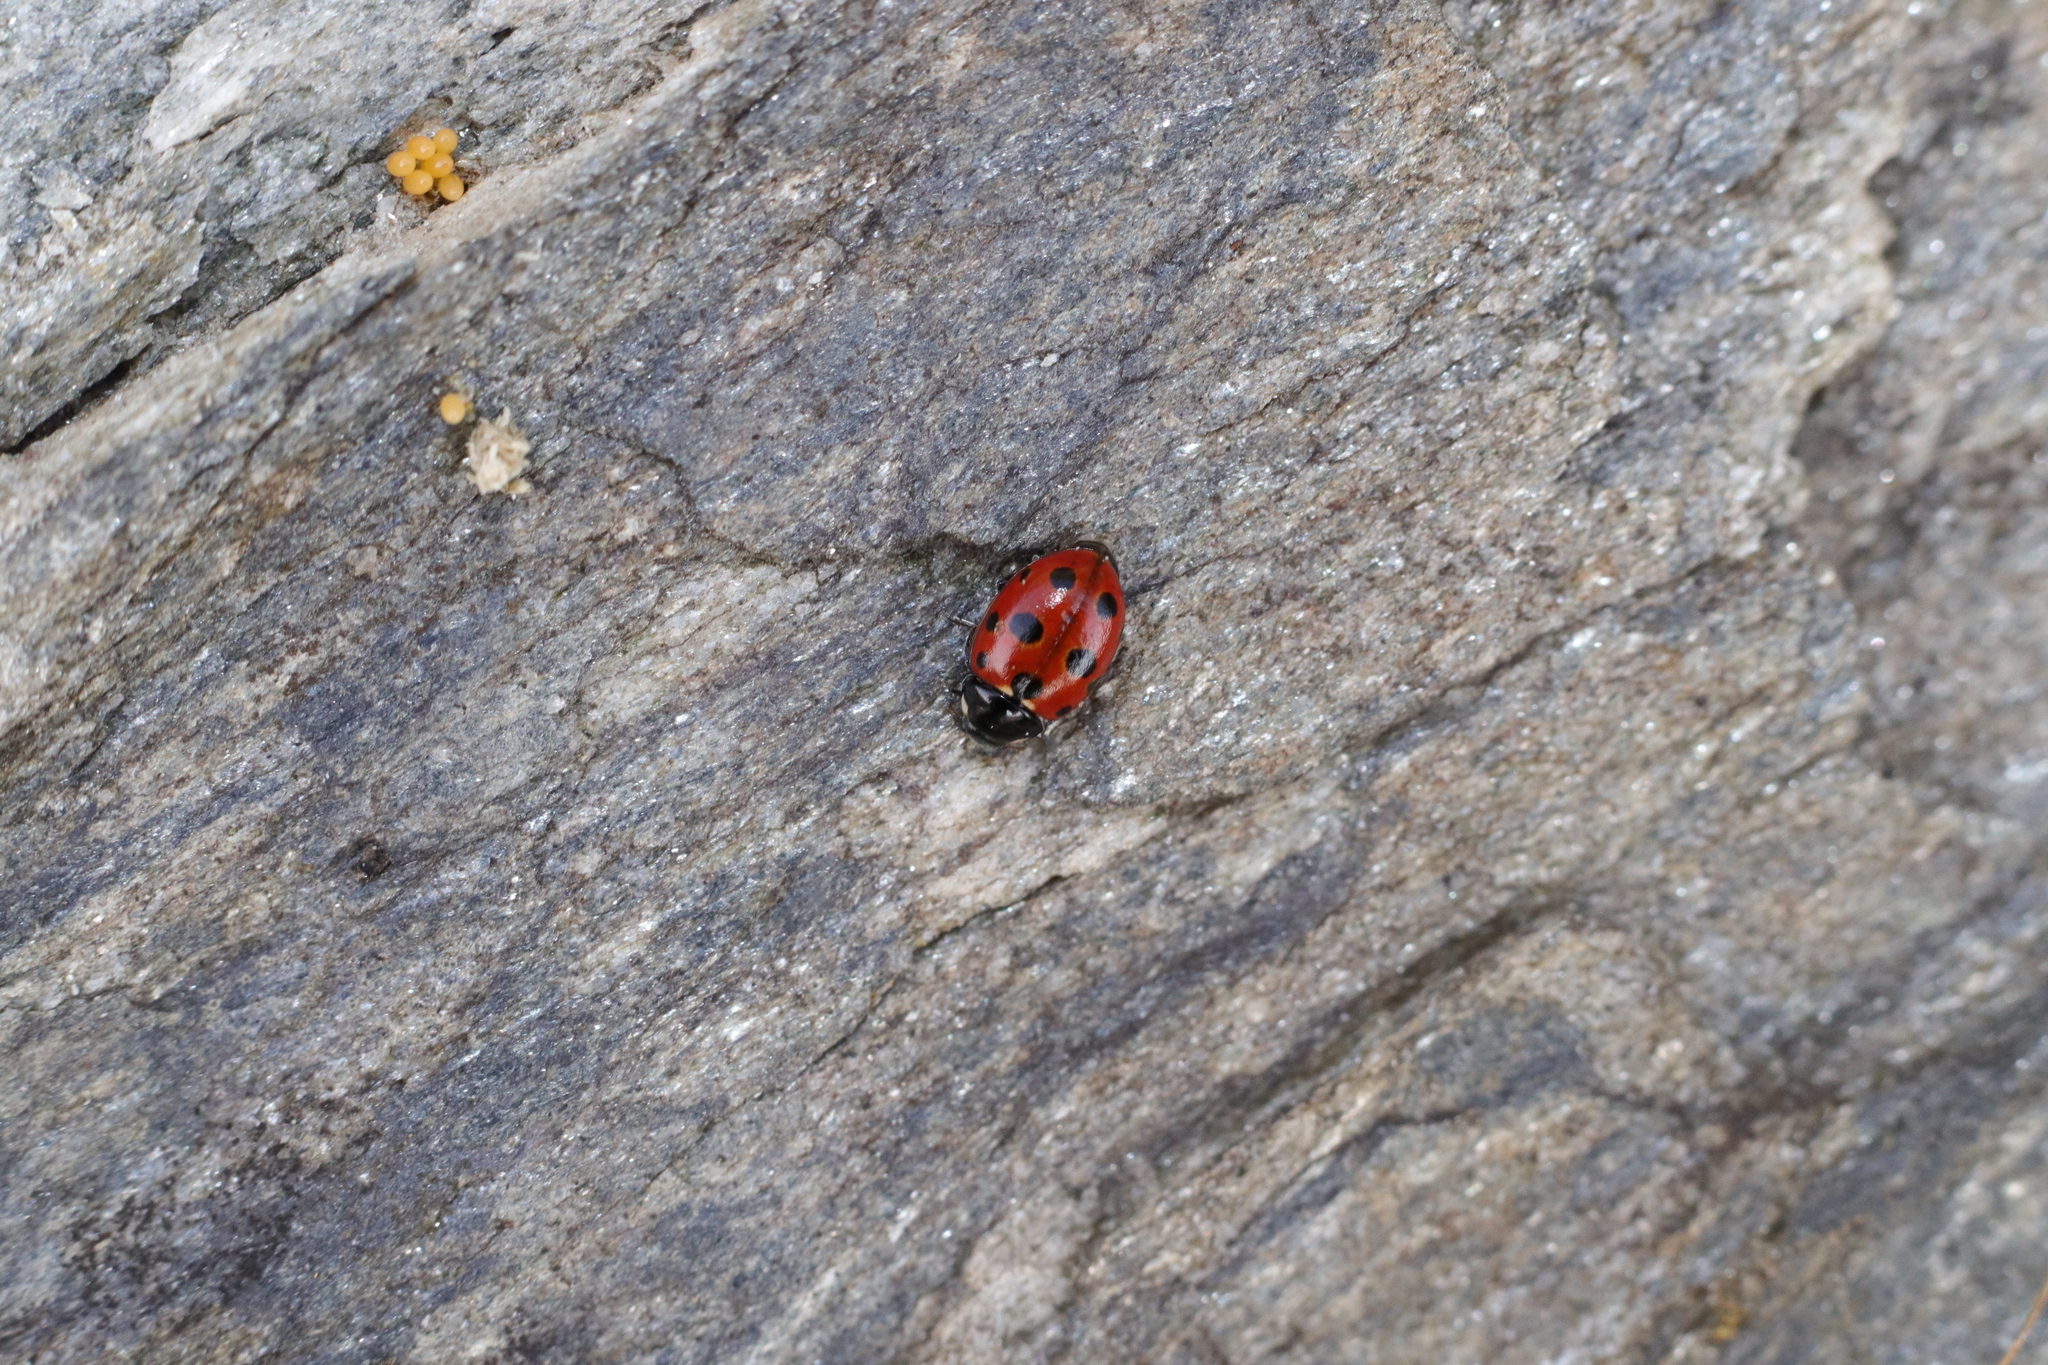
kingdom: Animalia
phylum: Arthropoda
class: Insecta
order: Coleoptera
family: Coccinellidae
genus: Coccinella
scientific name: Coccinella undecimpunctata
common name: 11-spot ladybird
